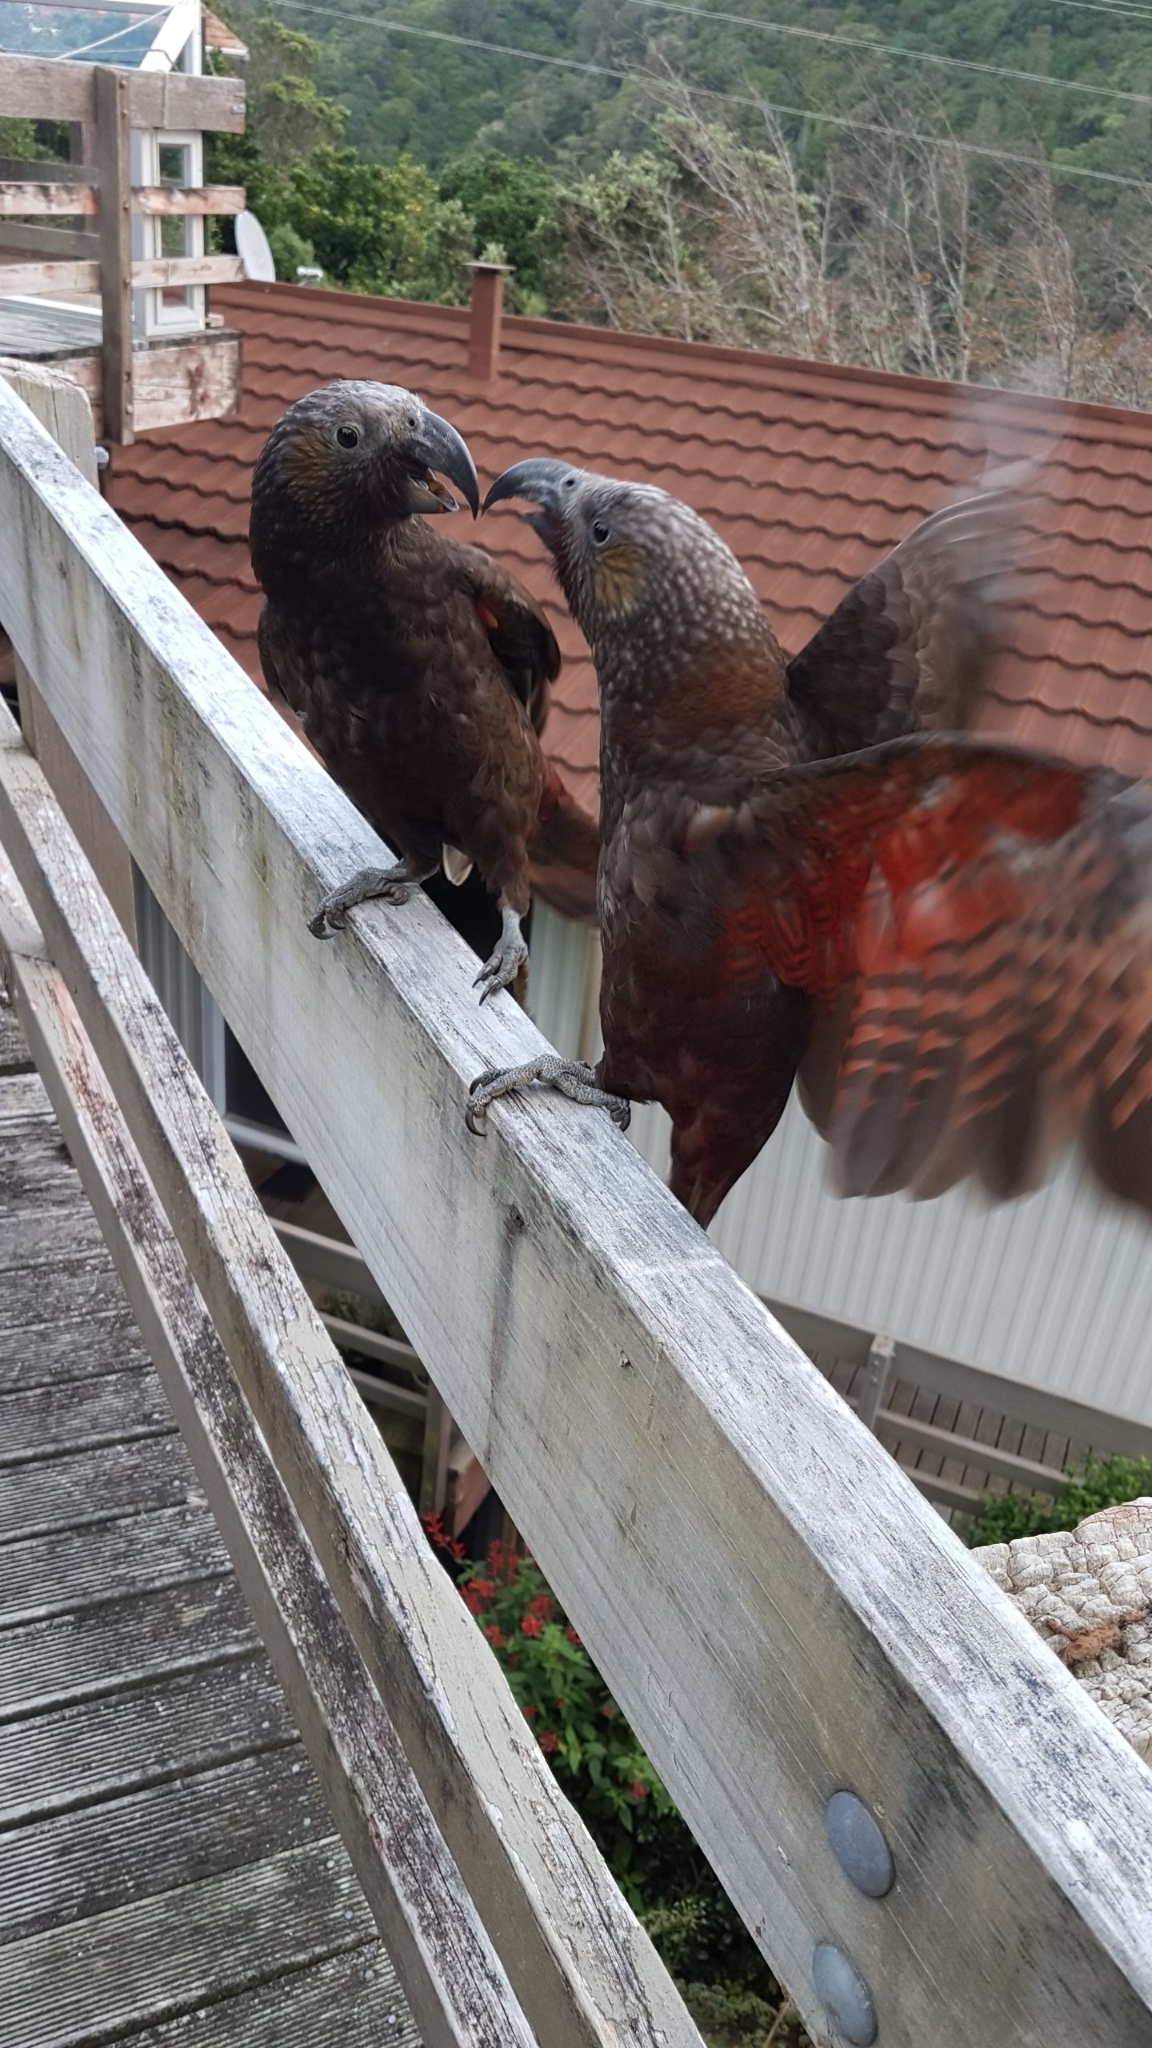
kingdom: Animalia
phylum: Chordata
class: Aves
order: Psittaciformes
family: Psittacidae
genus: Nestor
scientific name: Nestor meridionalis
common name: New zealand kaka
